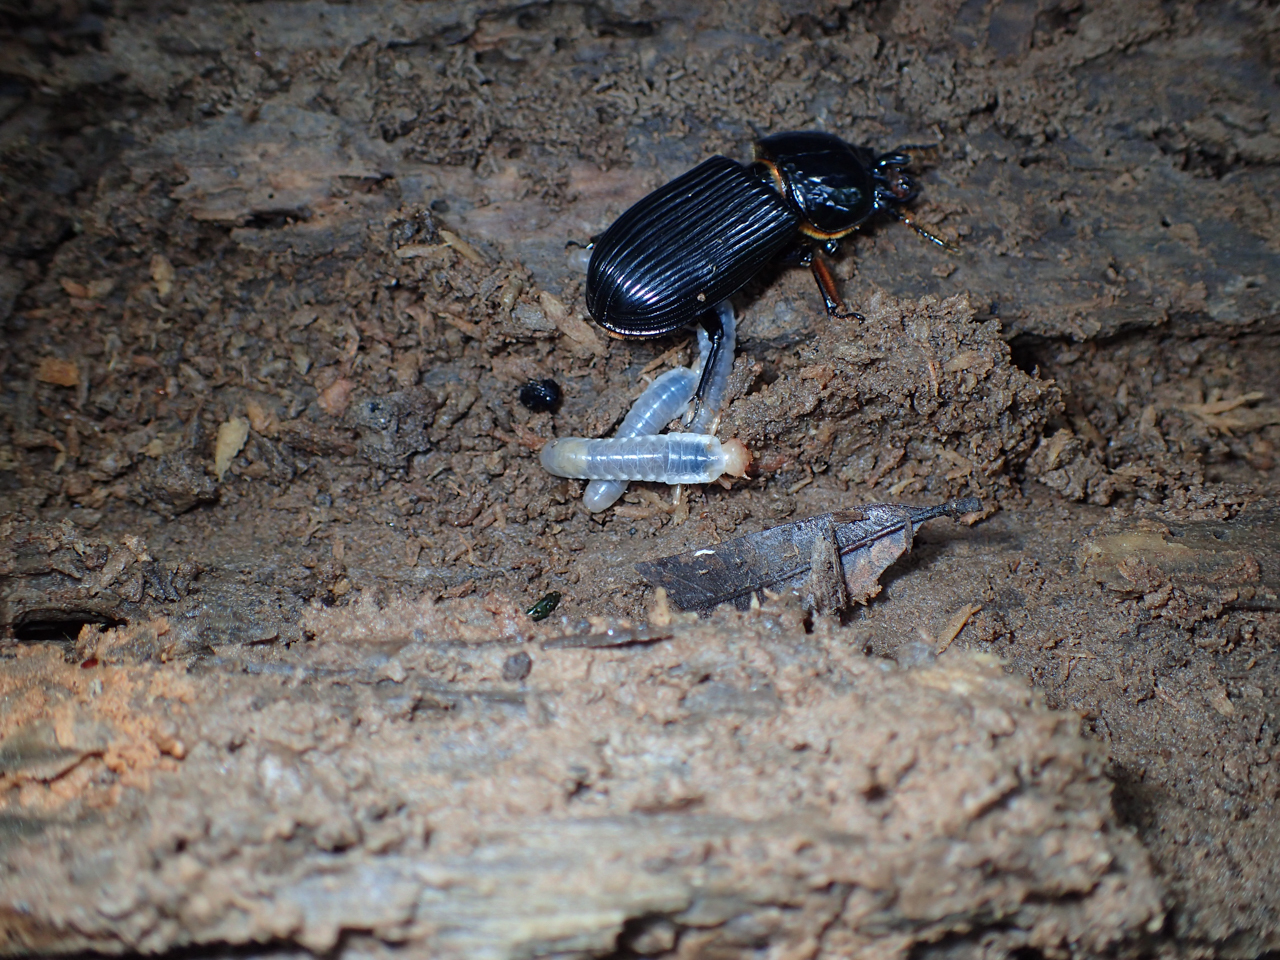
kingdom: Animalia
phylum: Arthropoda
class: Insecta
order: Coleoptera
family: Passalidae
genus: Odontotaenius
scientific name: Odontotaenius disjunctus
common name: Patent leather beetle
